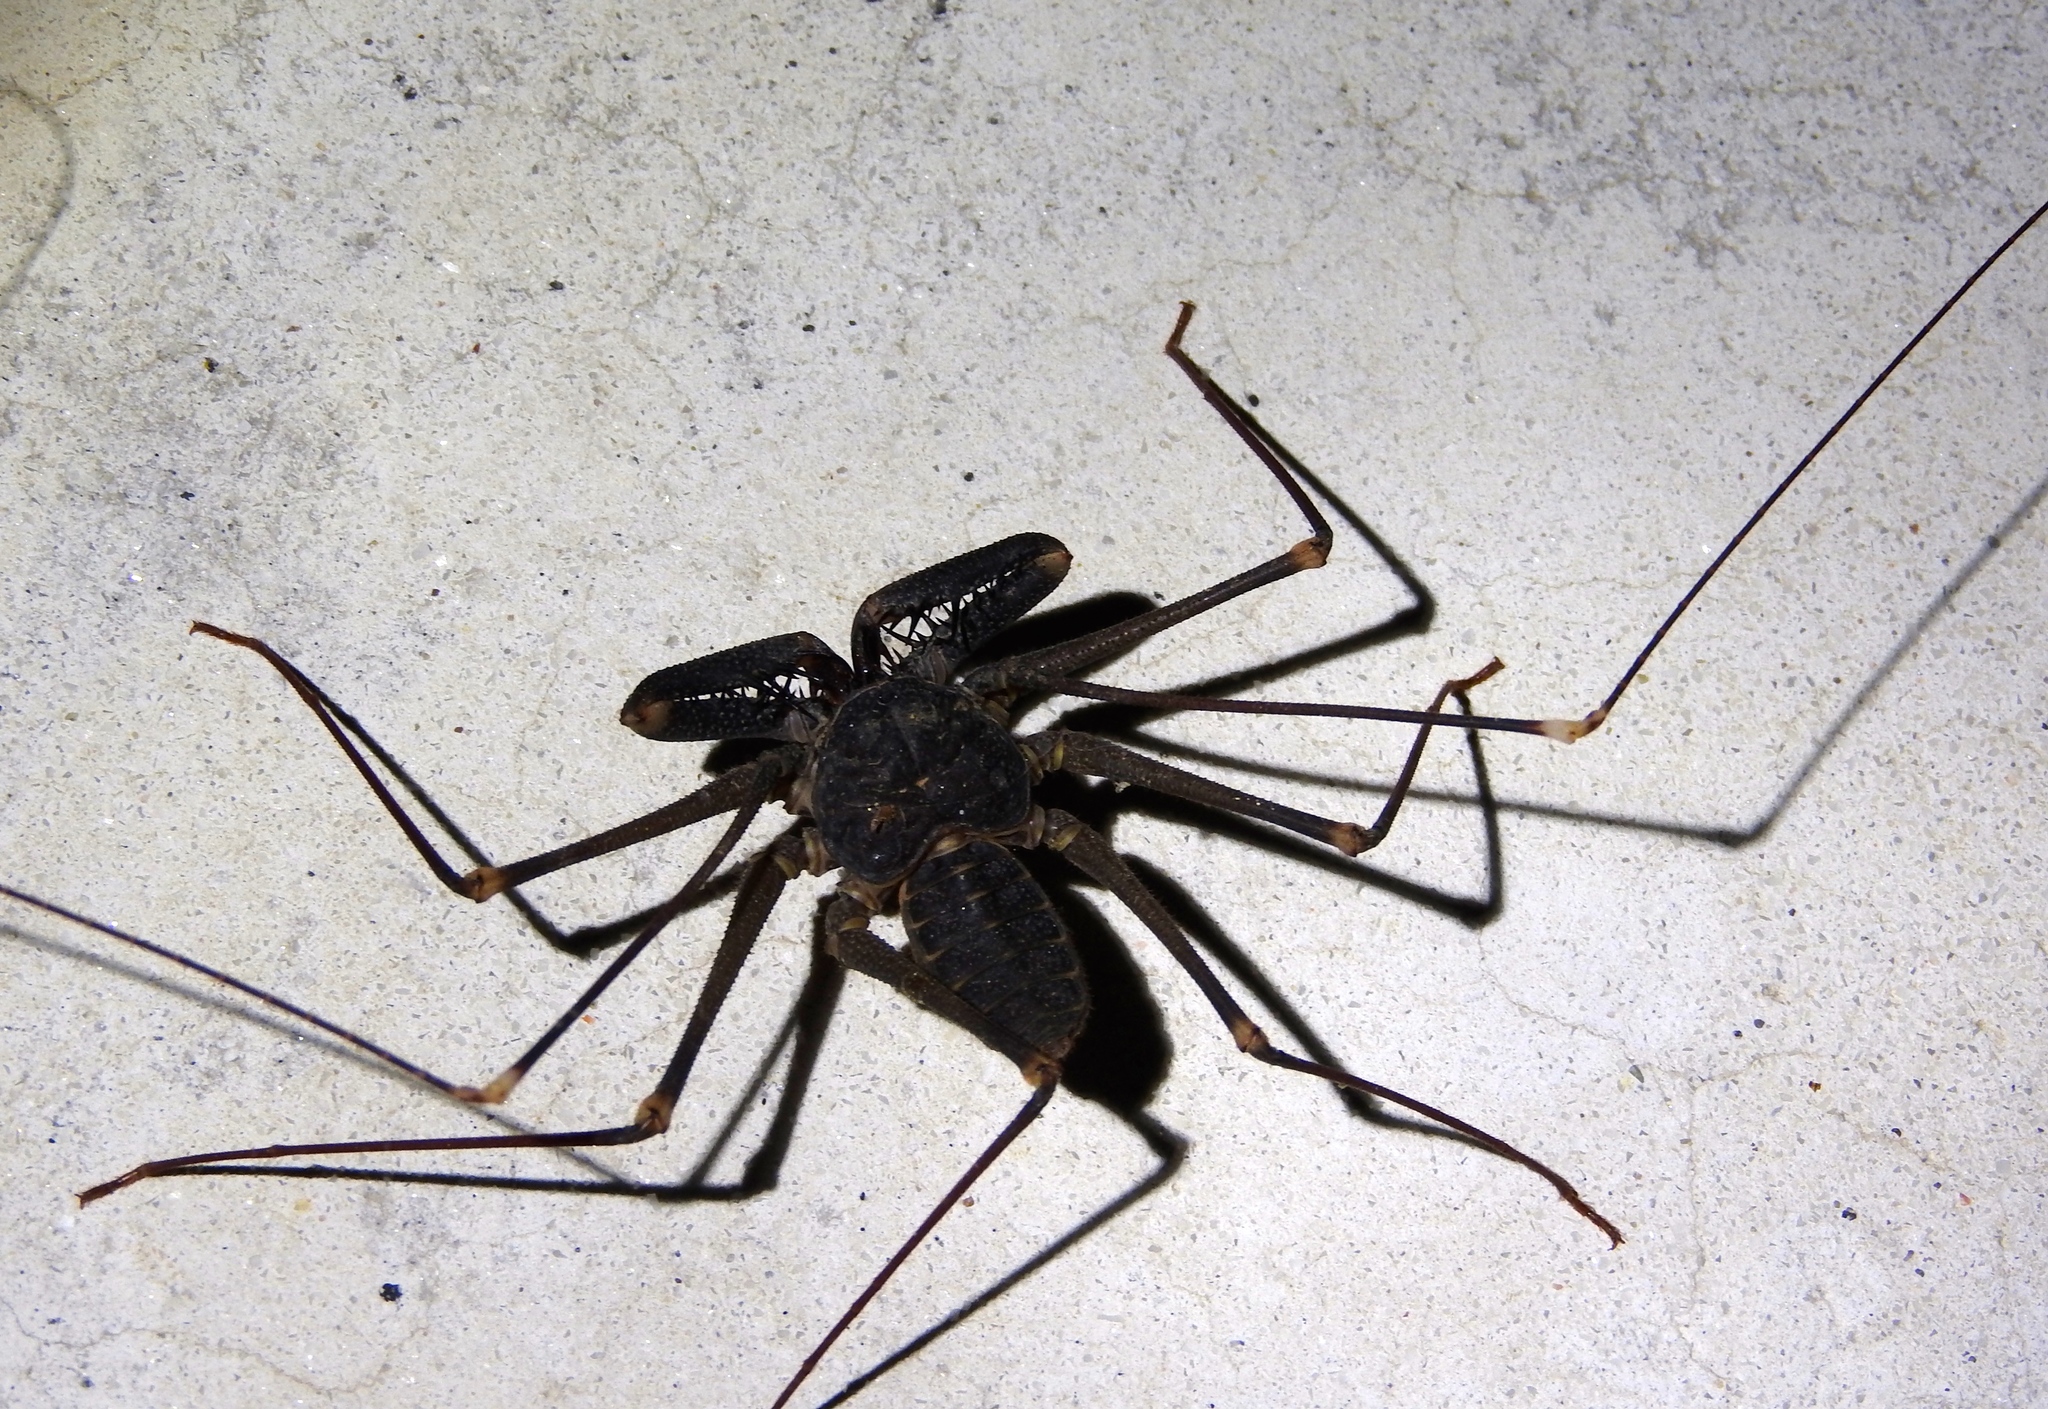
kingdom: Animalia
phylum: Arthropoda
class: Arachnida
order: Amblypygi
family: Phrynidae
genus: Acanthophrynus
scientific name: Acanthophrynus coronatus
